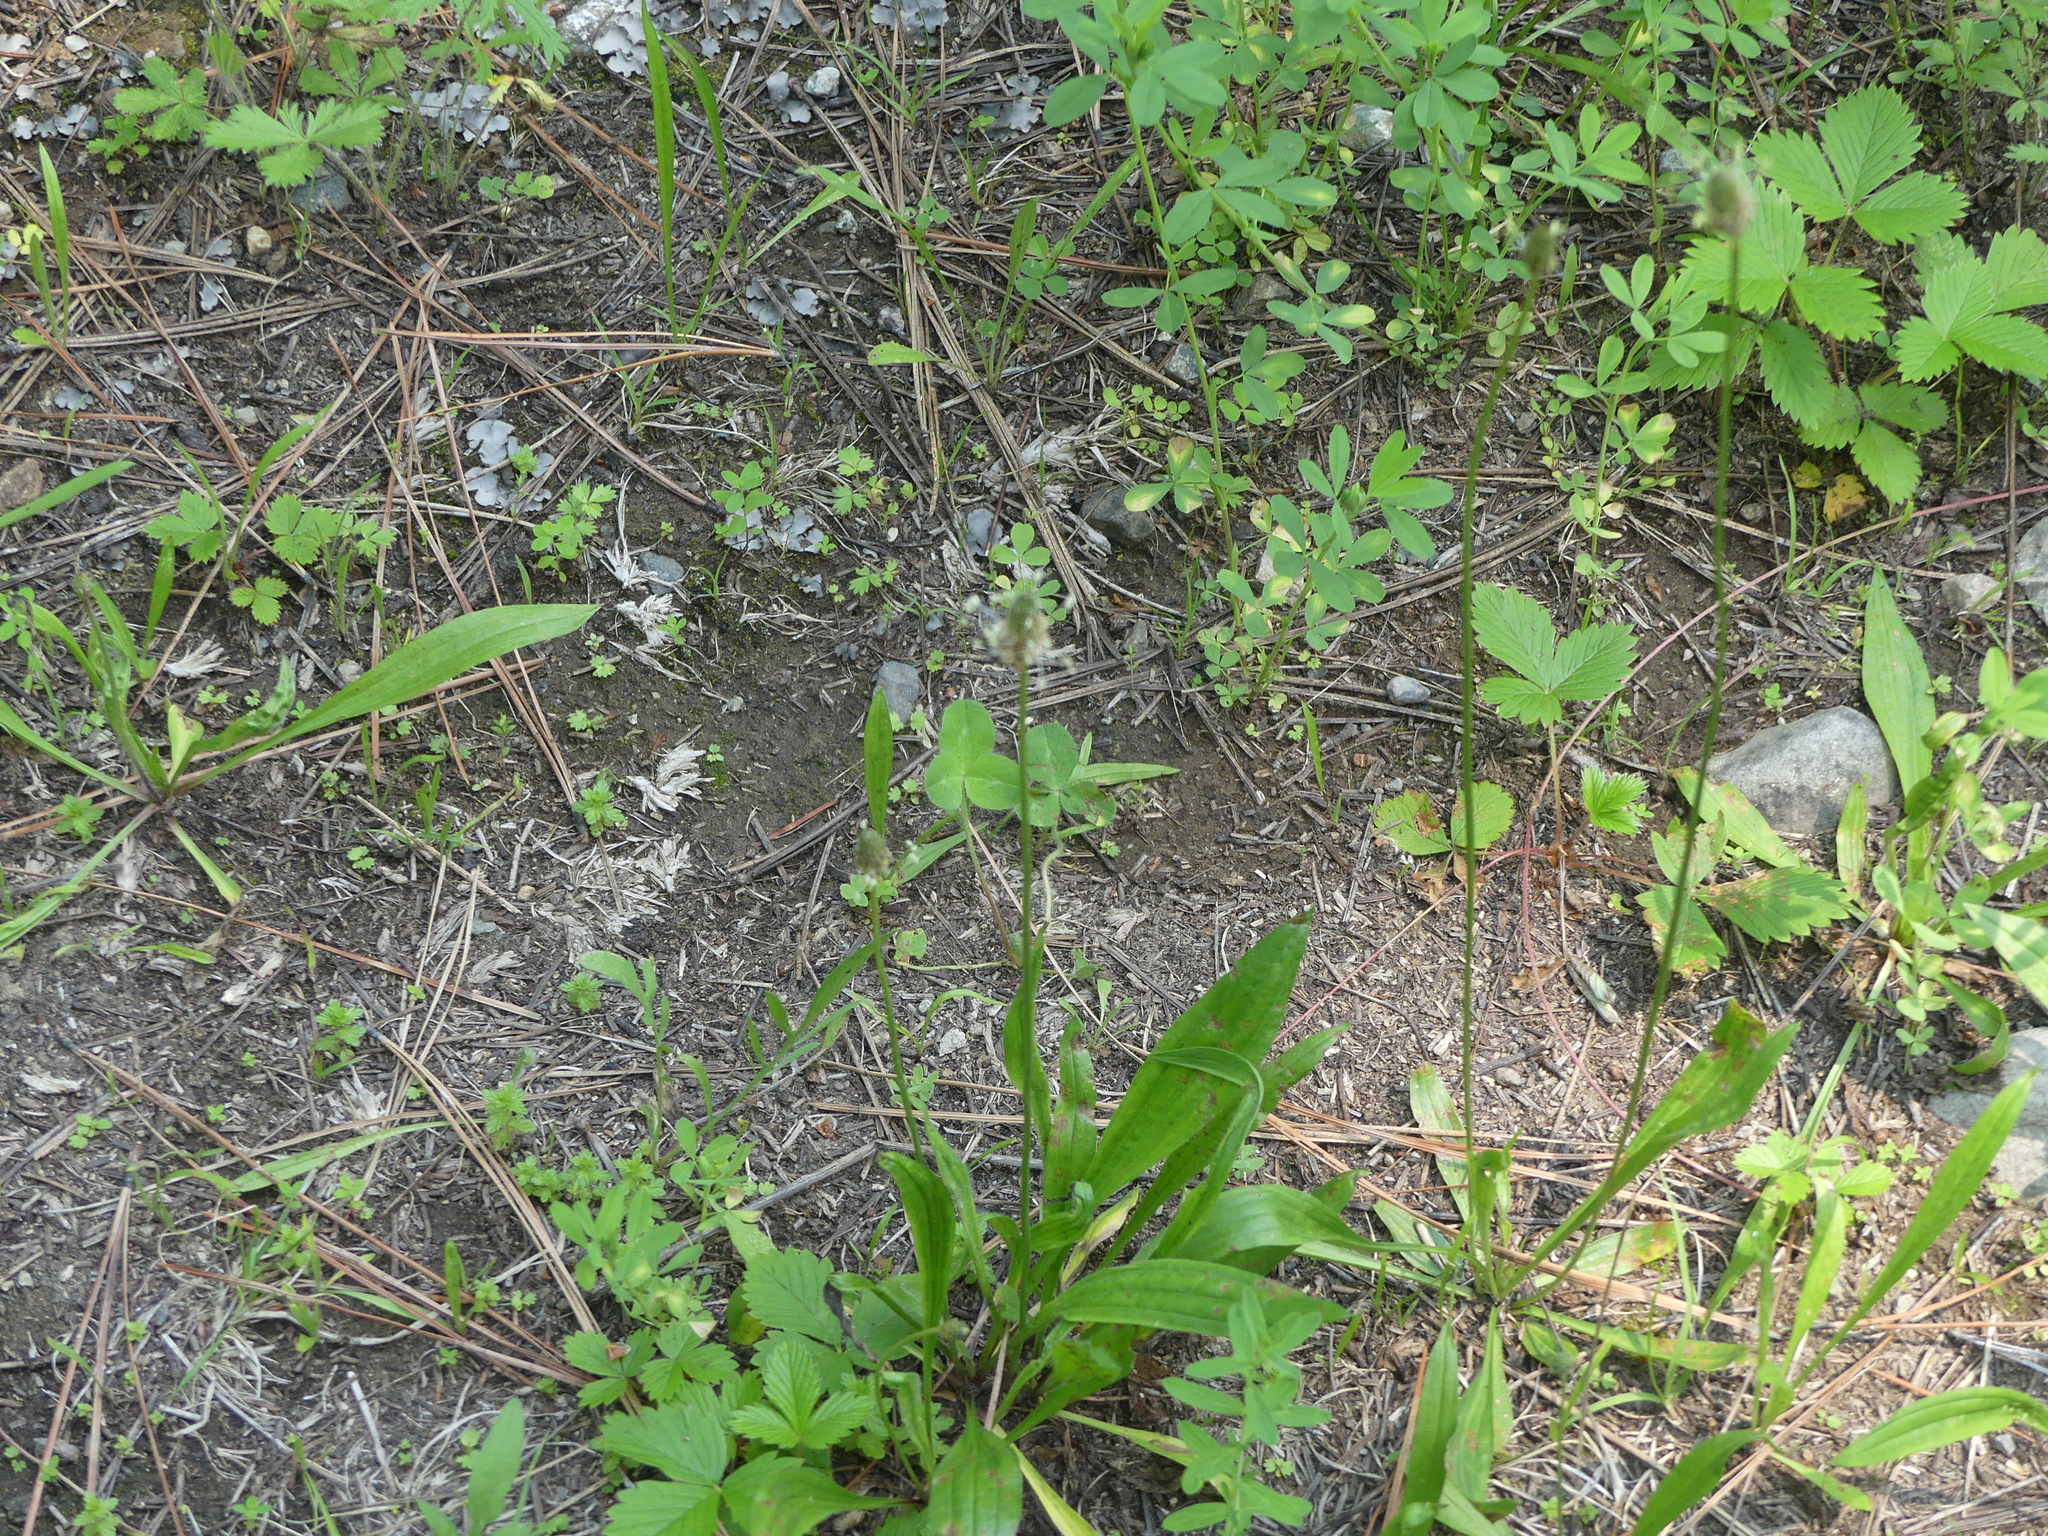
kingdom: Plantae
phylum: Tracheophyta
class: Magnoliopsida
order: Lamiales
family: Plantaginaceae
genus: Plantago
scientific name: Plantago lanceolata
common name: Ribwort plantain
